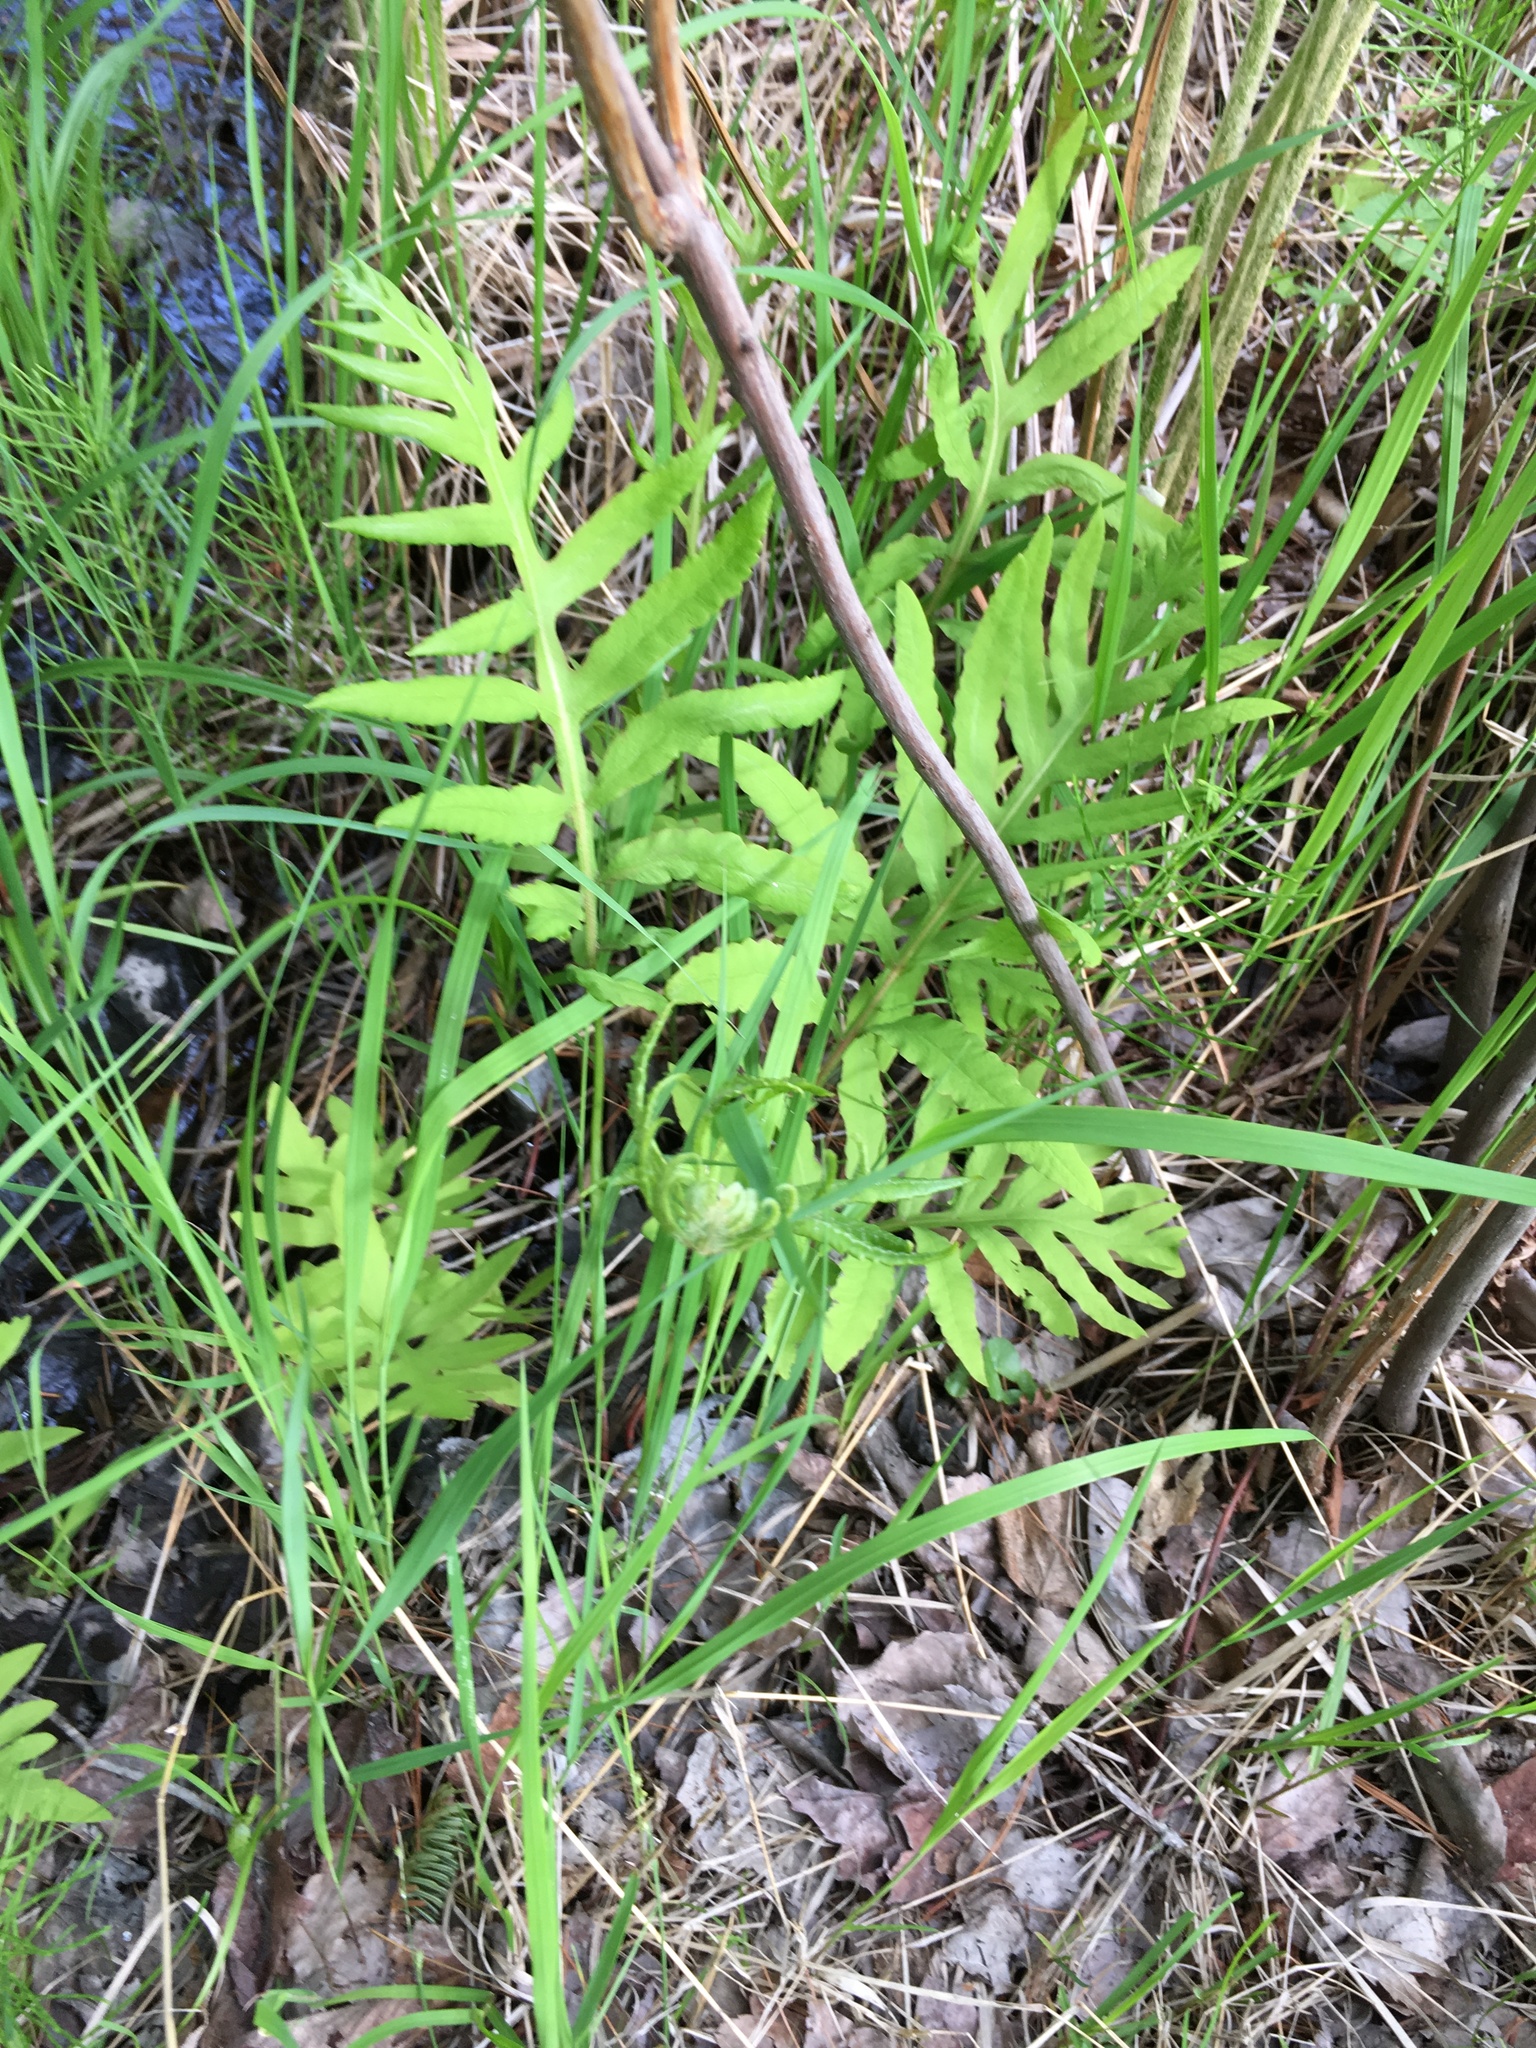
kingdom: Plantae
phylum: Tracheophyta
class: Polypodiopsida
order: Polypodiales
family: Onocleaceae
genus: Onoclea
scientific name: Onoclea sensibilis
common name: Sensitive fern
